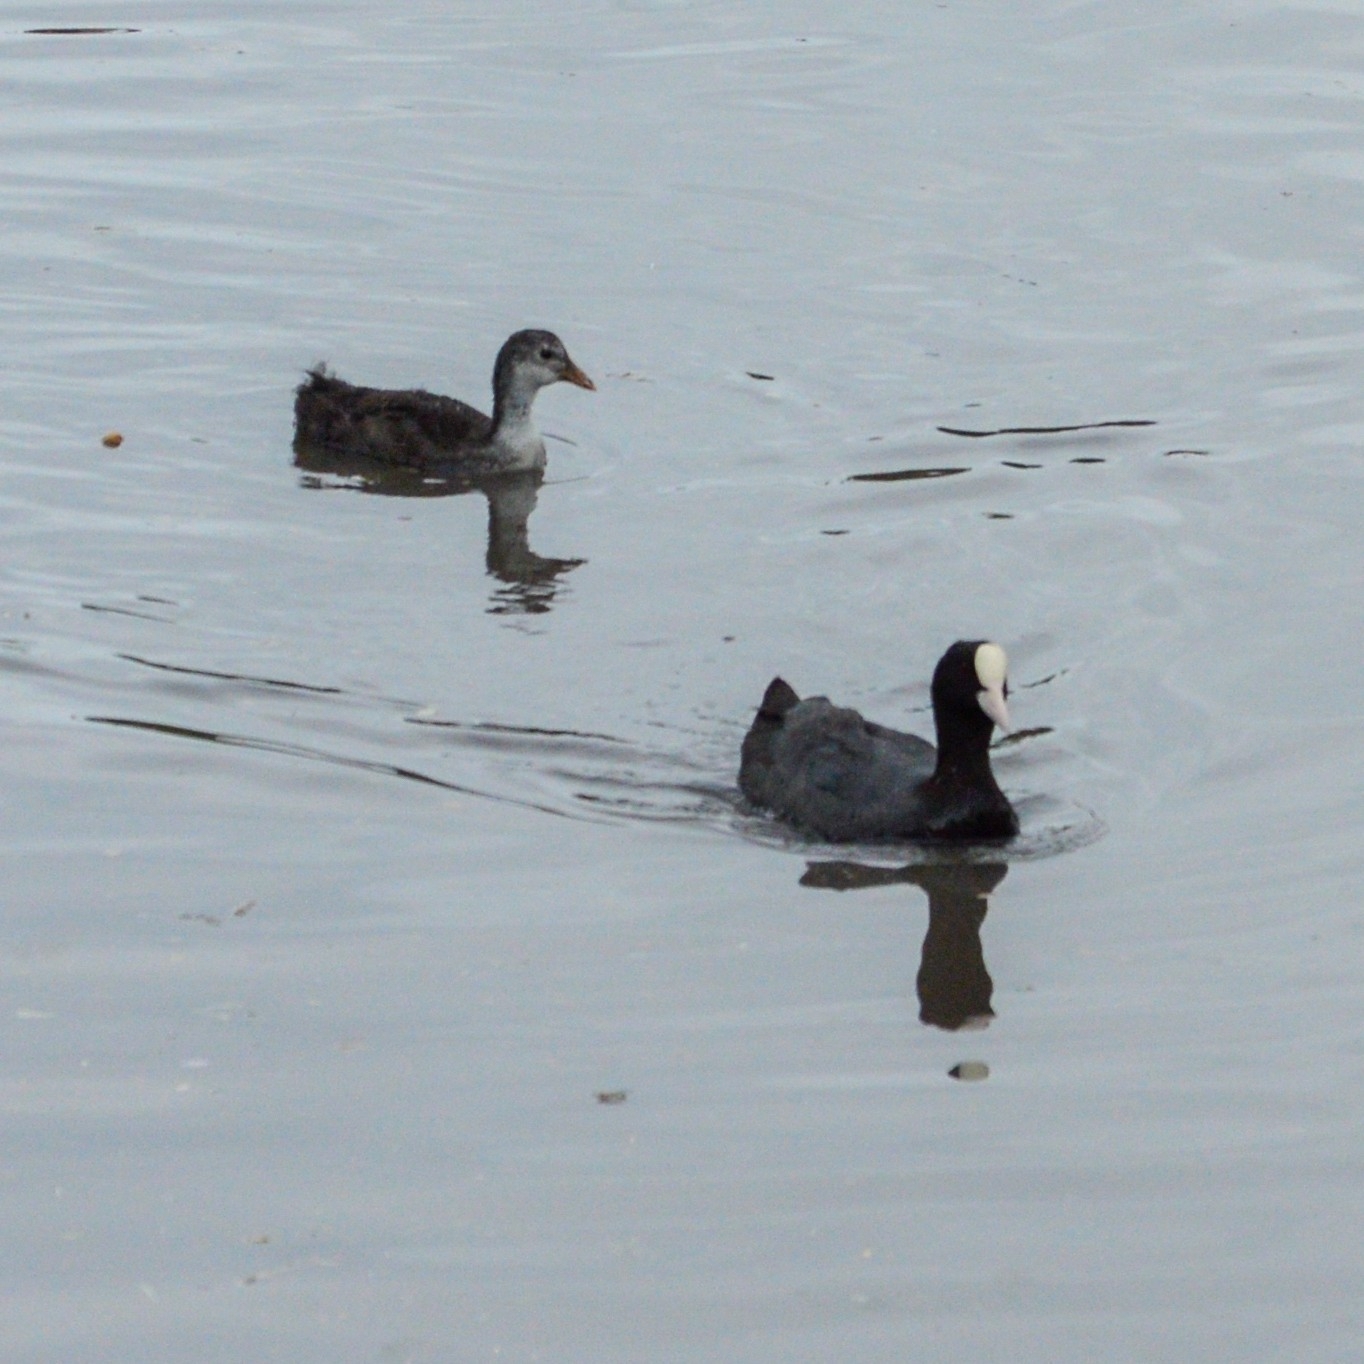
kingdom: Animalia
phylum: Chordata
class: Aves
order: Gruiformes
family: Rallidae
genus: Fulica
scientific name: Fulica atra
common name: Eurasian coot
